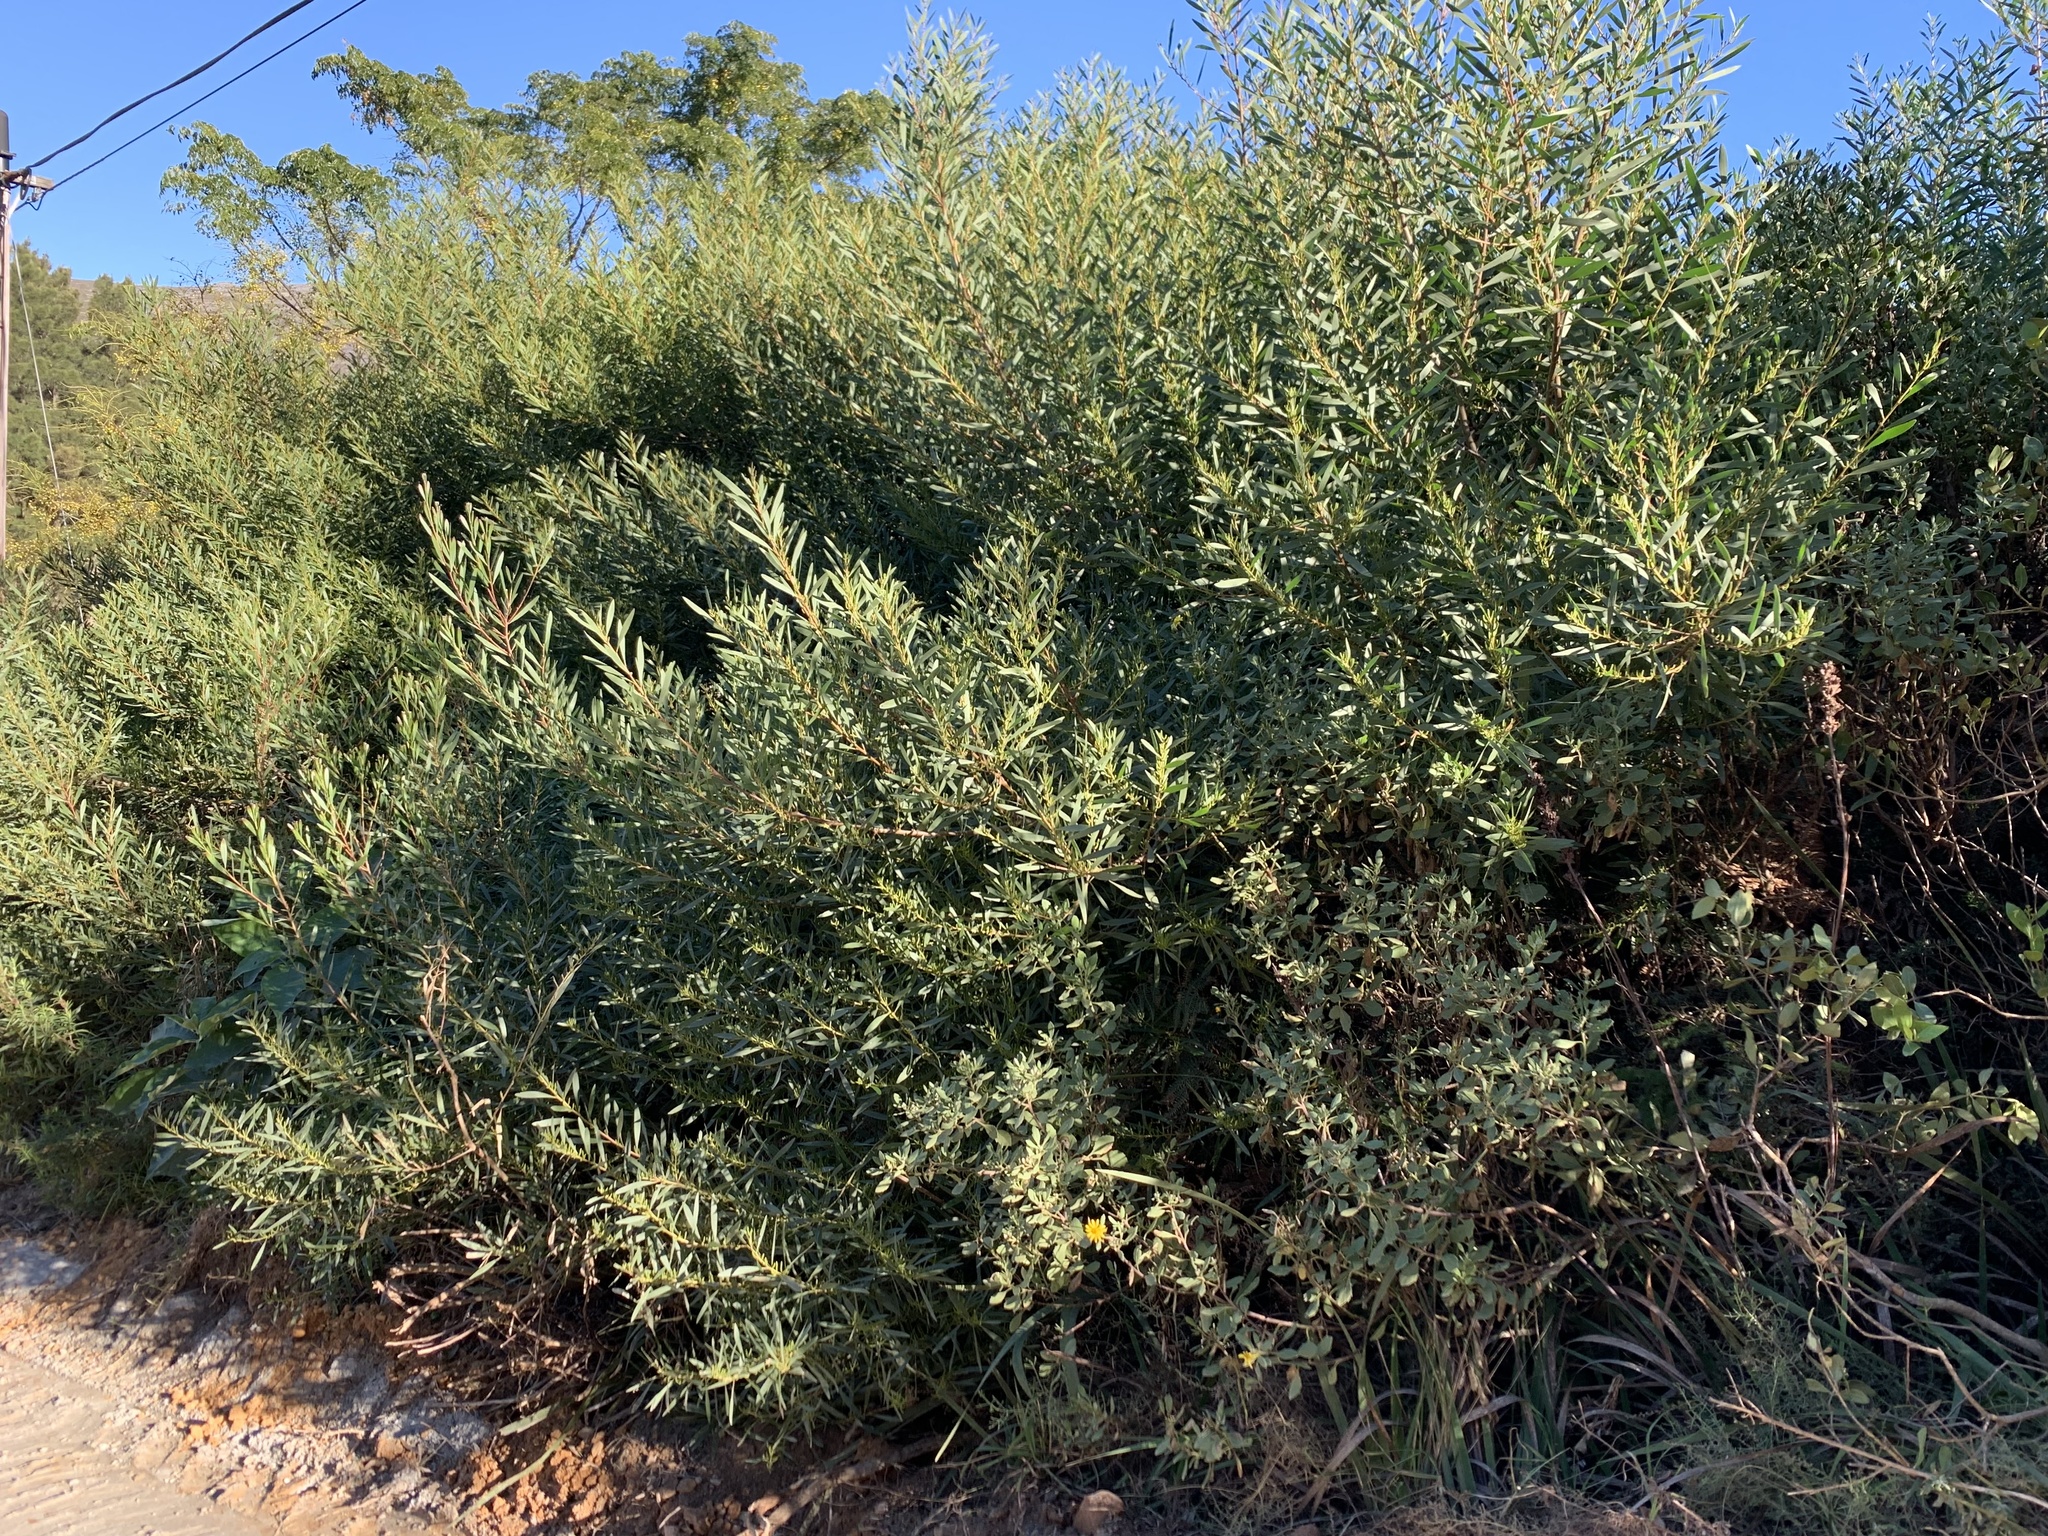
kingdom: Plantae
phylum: Tracheophyta
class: Magnoliopsida
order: Fabales
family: Fabaceae
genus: Acacia
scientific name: Acacia longifolia
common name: Sydney golden wattle
